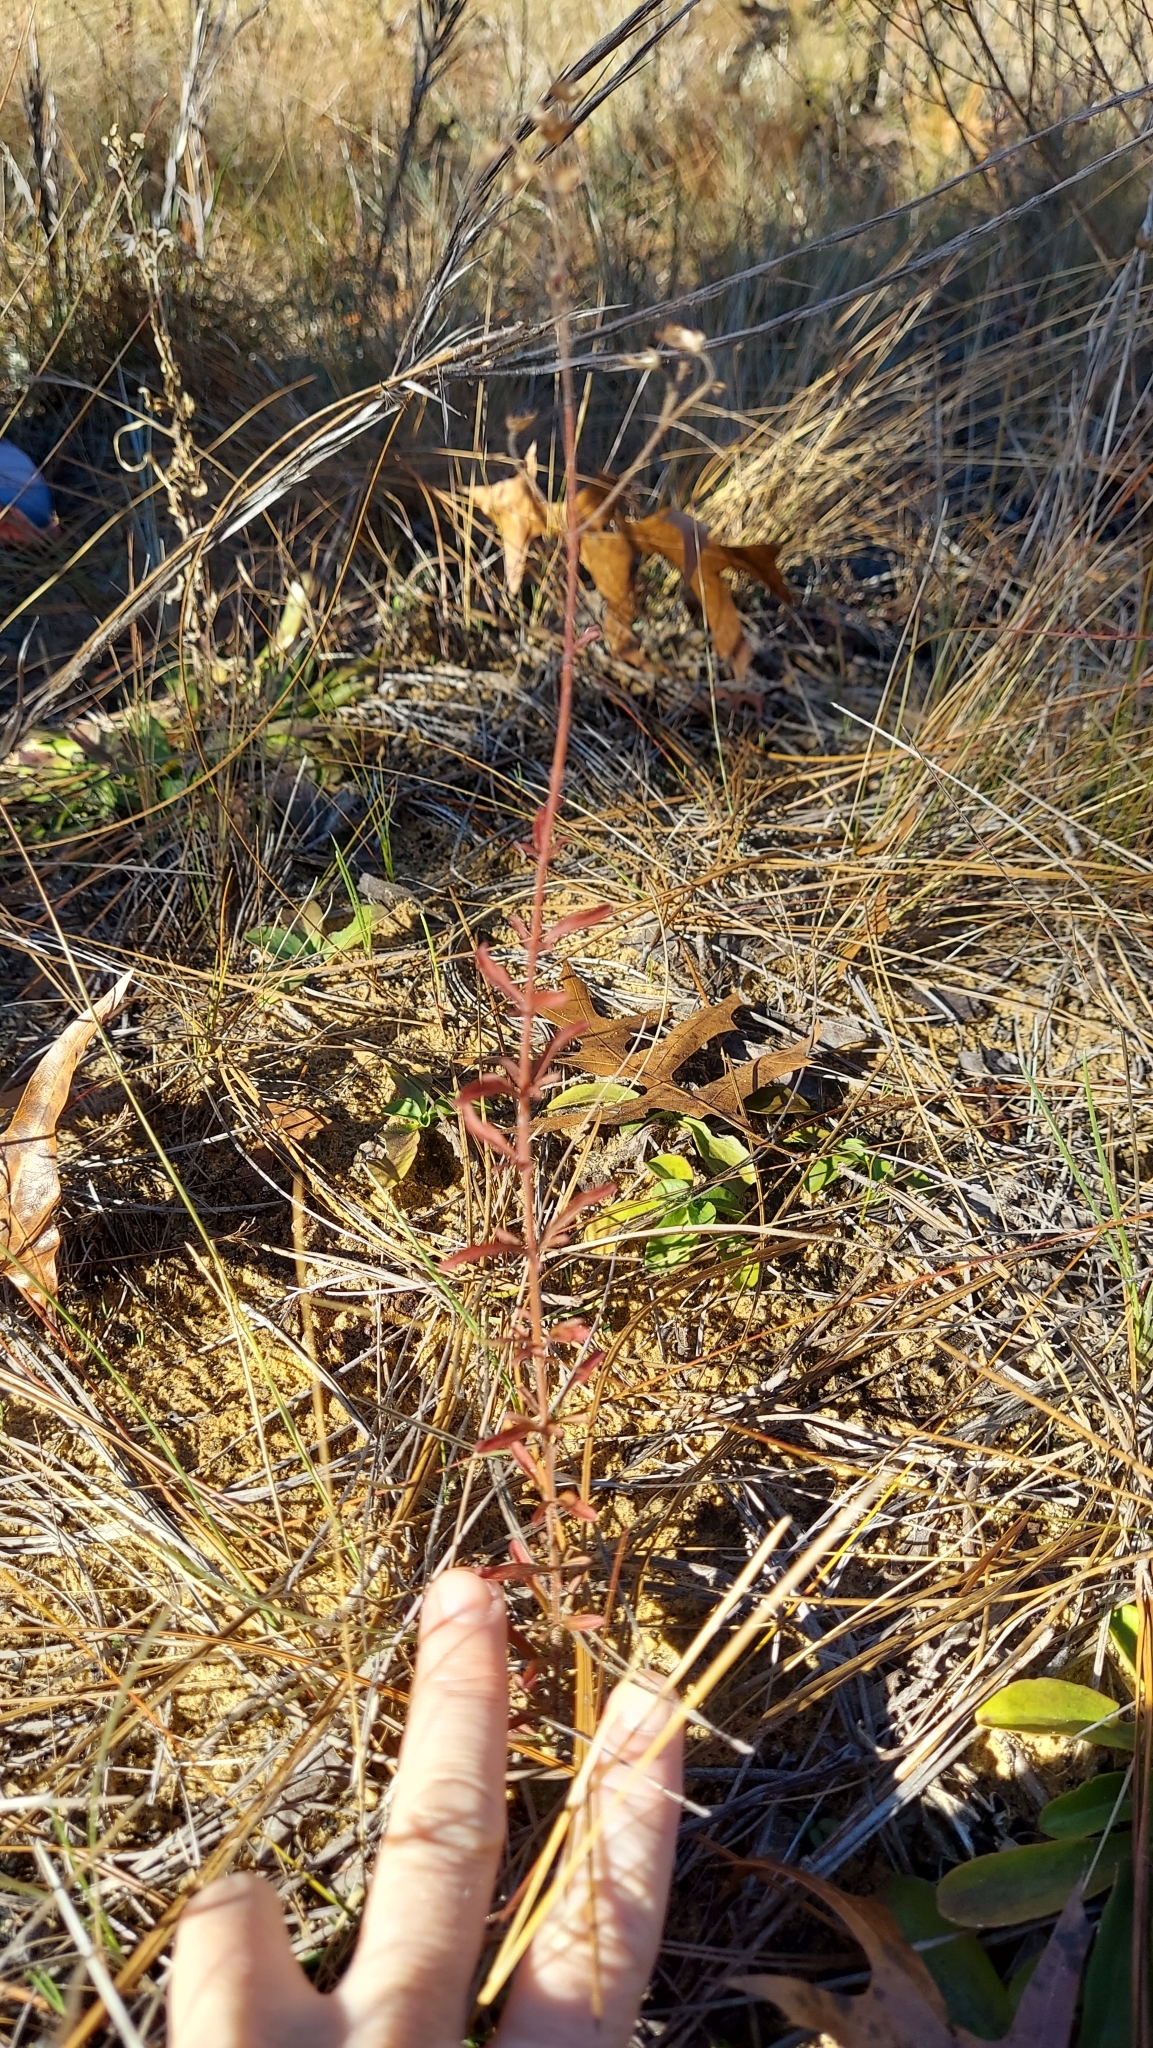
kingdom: Plantae
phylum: Tracheophyta
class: Magnoliopsida
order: Lamiales
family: Lamiaceae
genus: Trichostema
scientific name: Trichostema microphyllum
